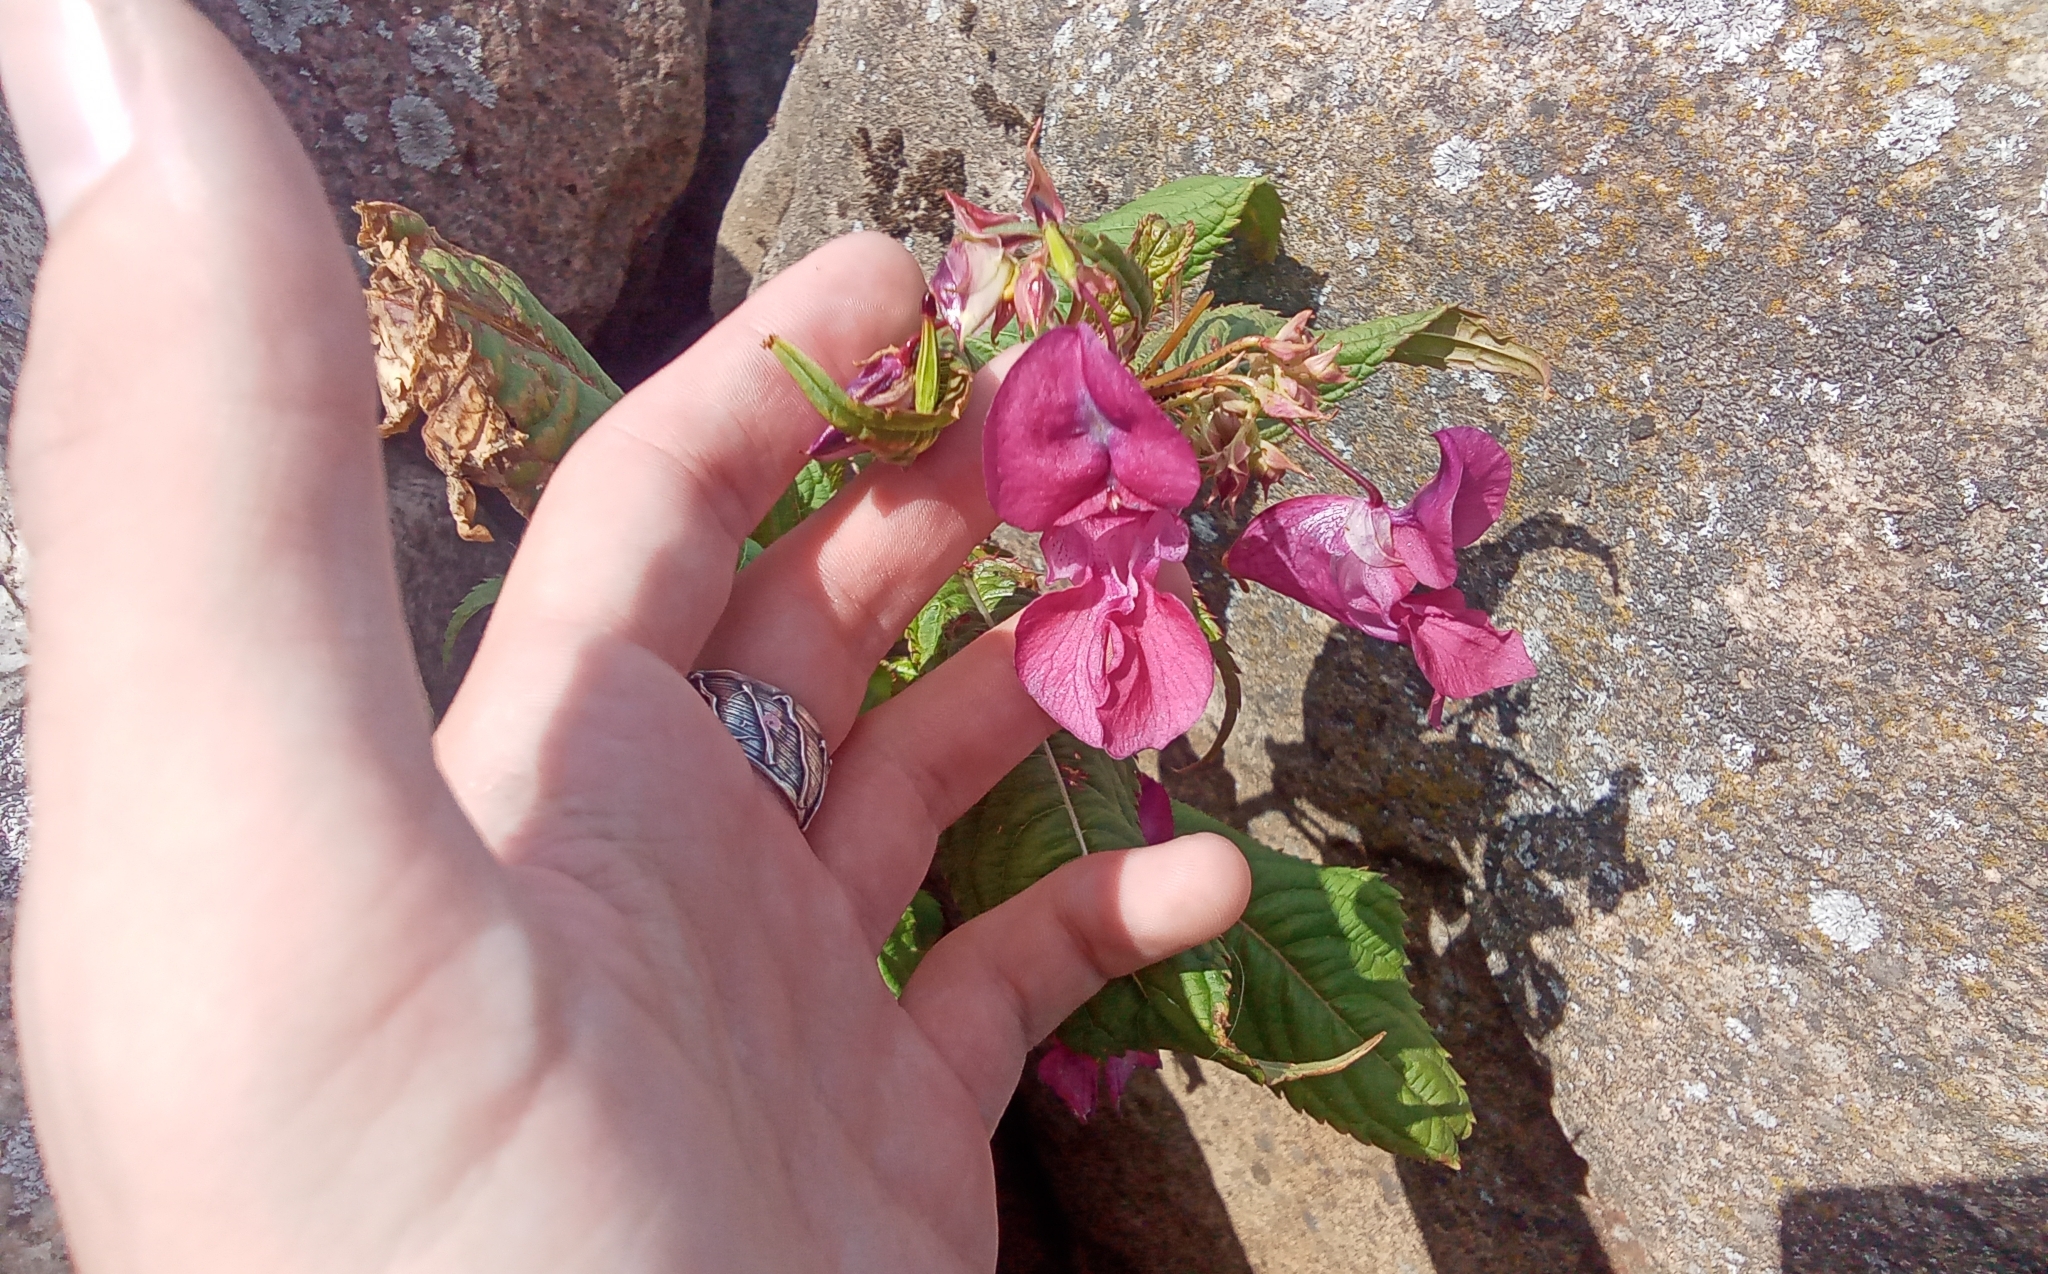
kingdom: Plantae
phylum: Tracheophyta
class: Magnoliopsida
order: Ericales
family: Balsaminaceae
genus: Impatiens
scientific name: Impatiens glandulifera
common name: Himalayan balsam
